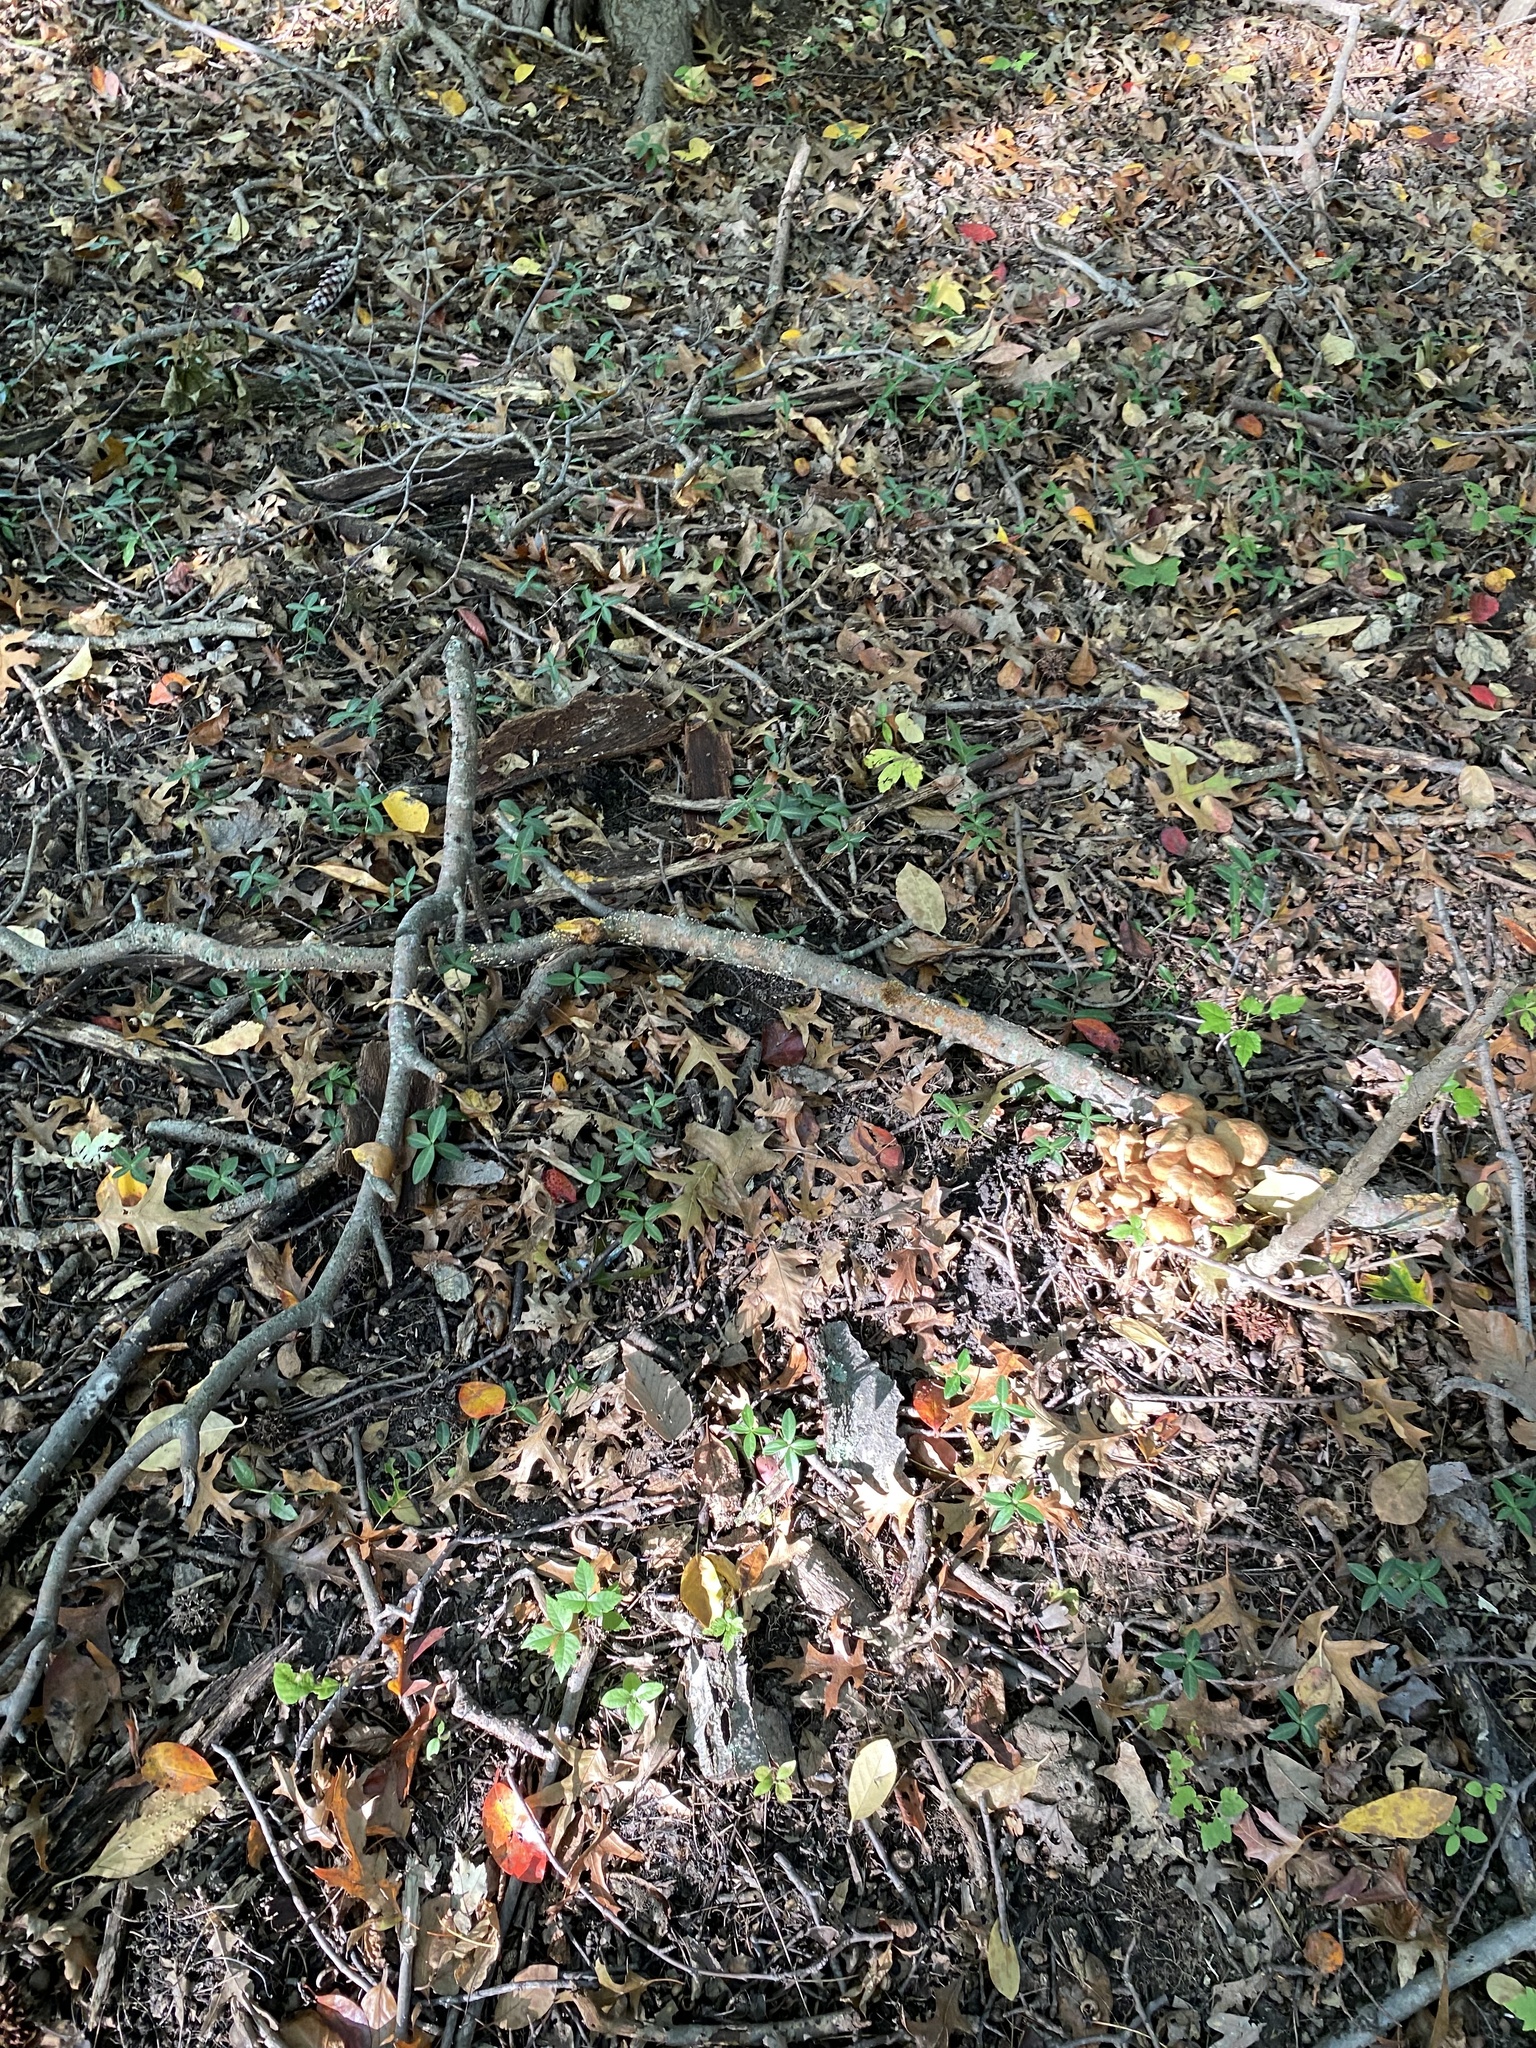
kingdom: Plantae
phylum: Tracheophyta
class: Magnoliopsida
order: Gentianales
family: Apocynaceae
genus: Vinca
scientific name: Vinca minor
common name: Lesser periwinkle
